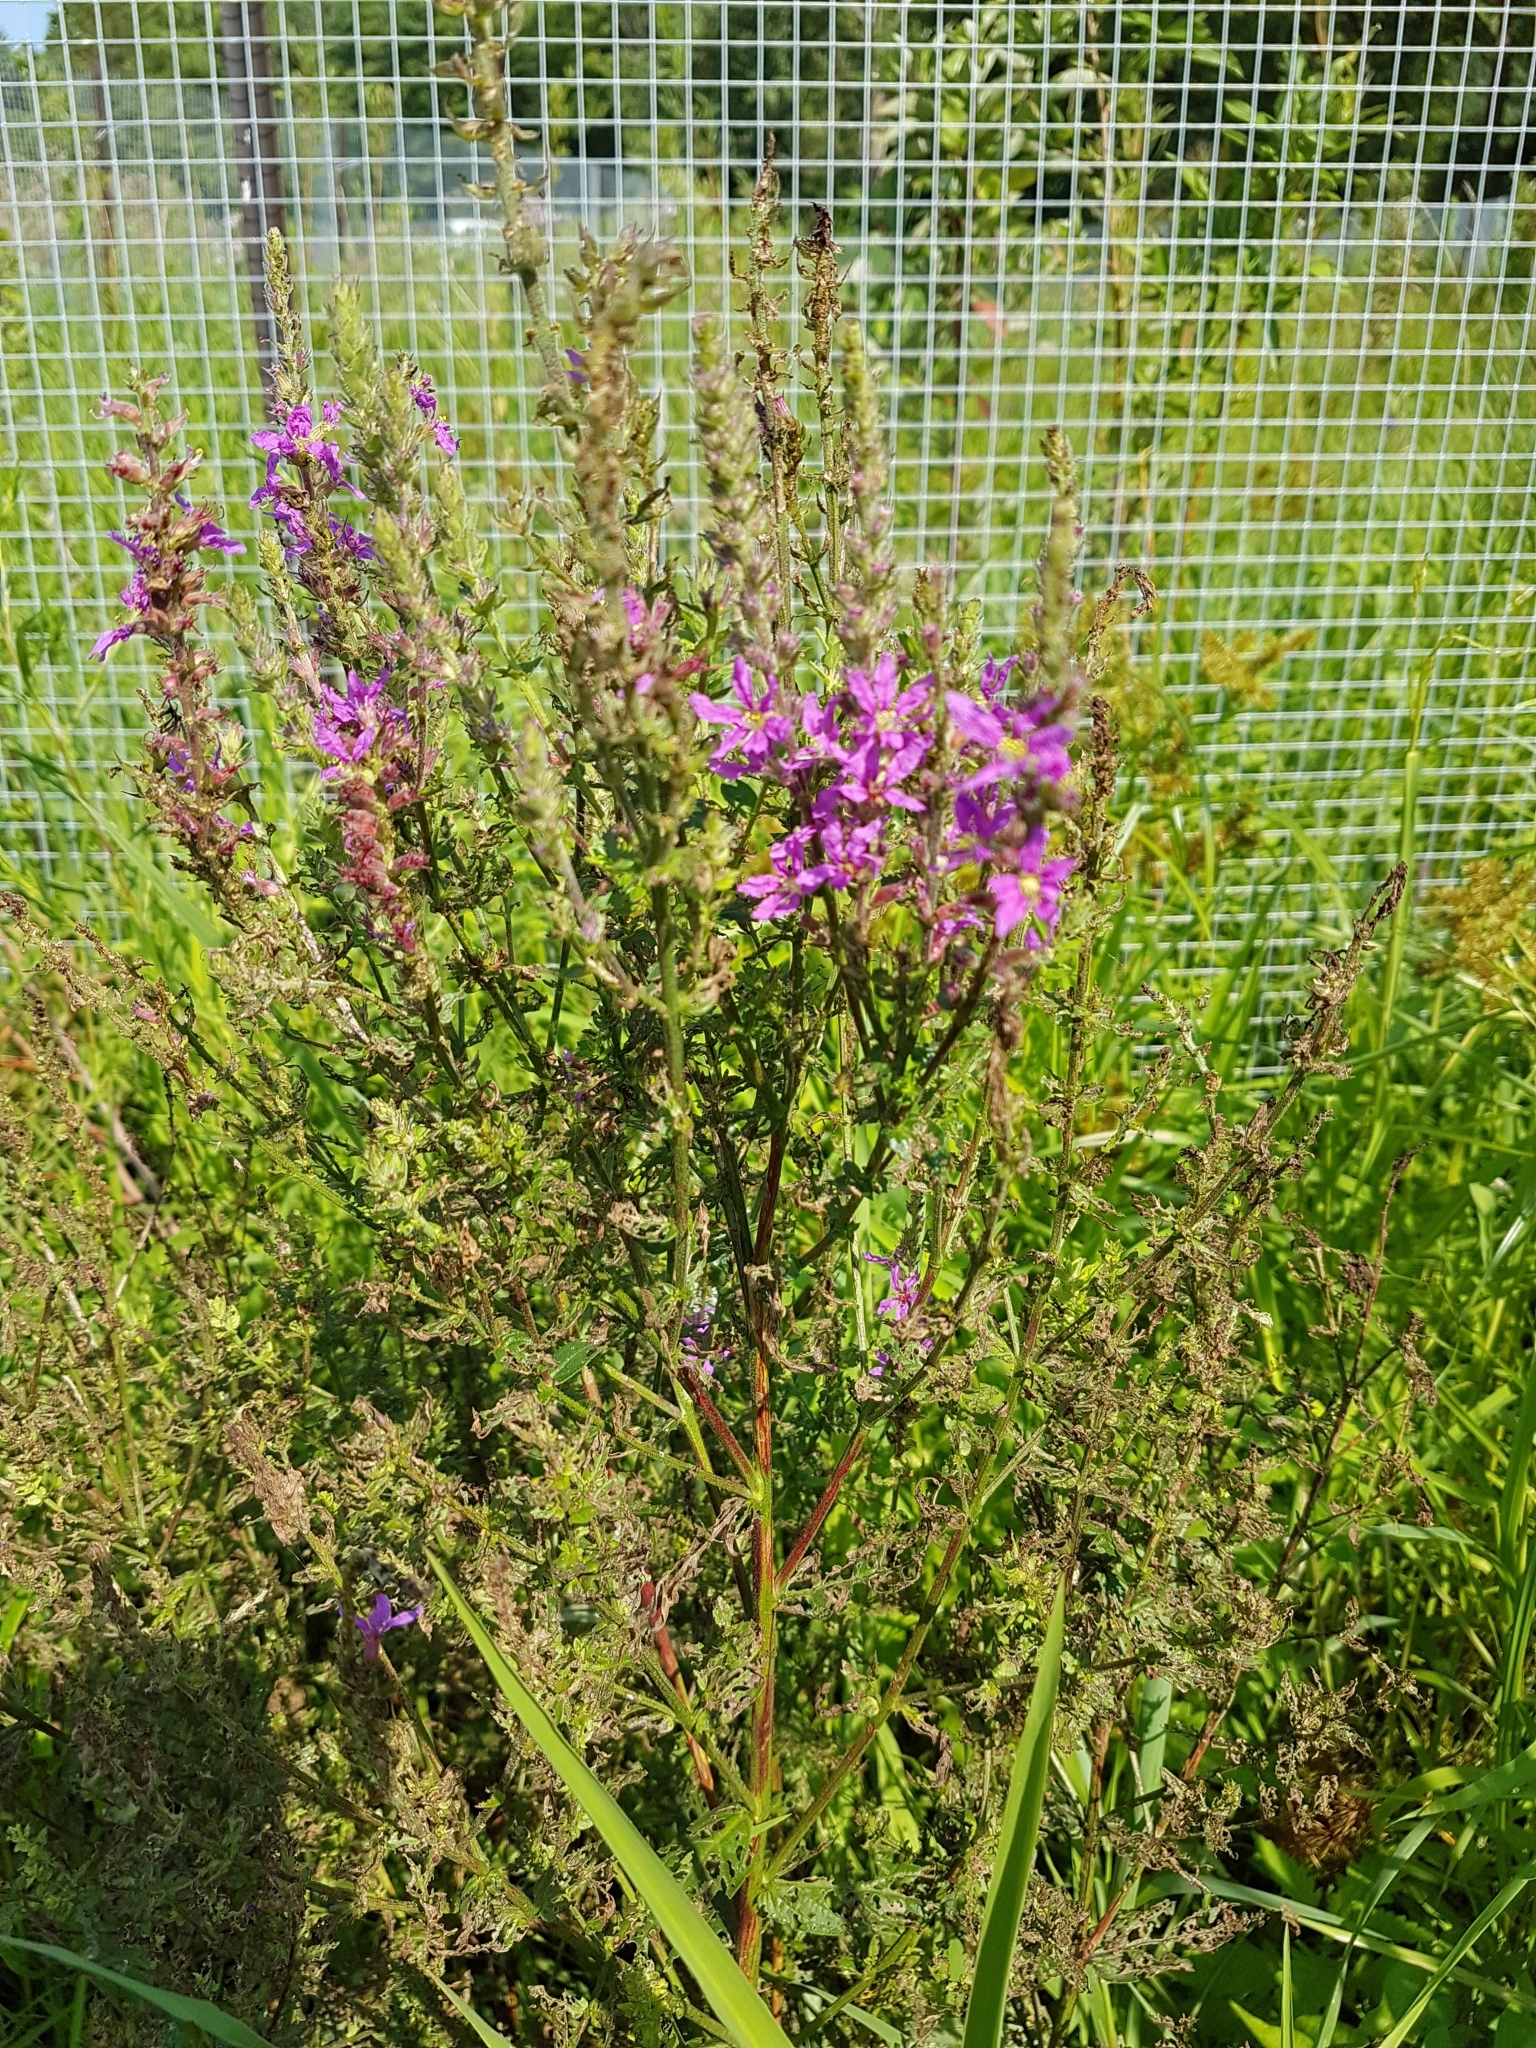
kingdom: Plantae
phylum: Tracheophyta
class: Magnoliopsida
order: Myrtales
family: Lythraceae
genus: Lythrum
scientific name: Lythrum salicaria
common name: Purple loosestrife
